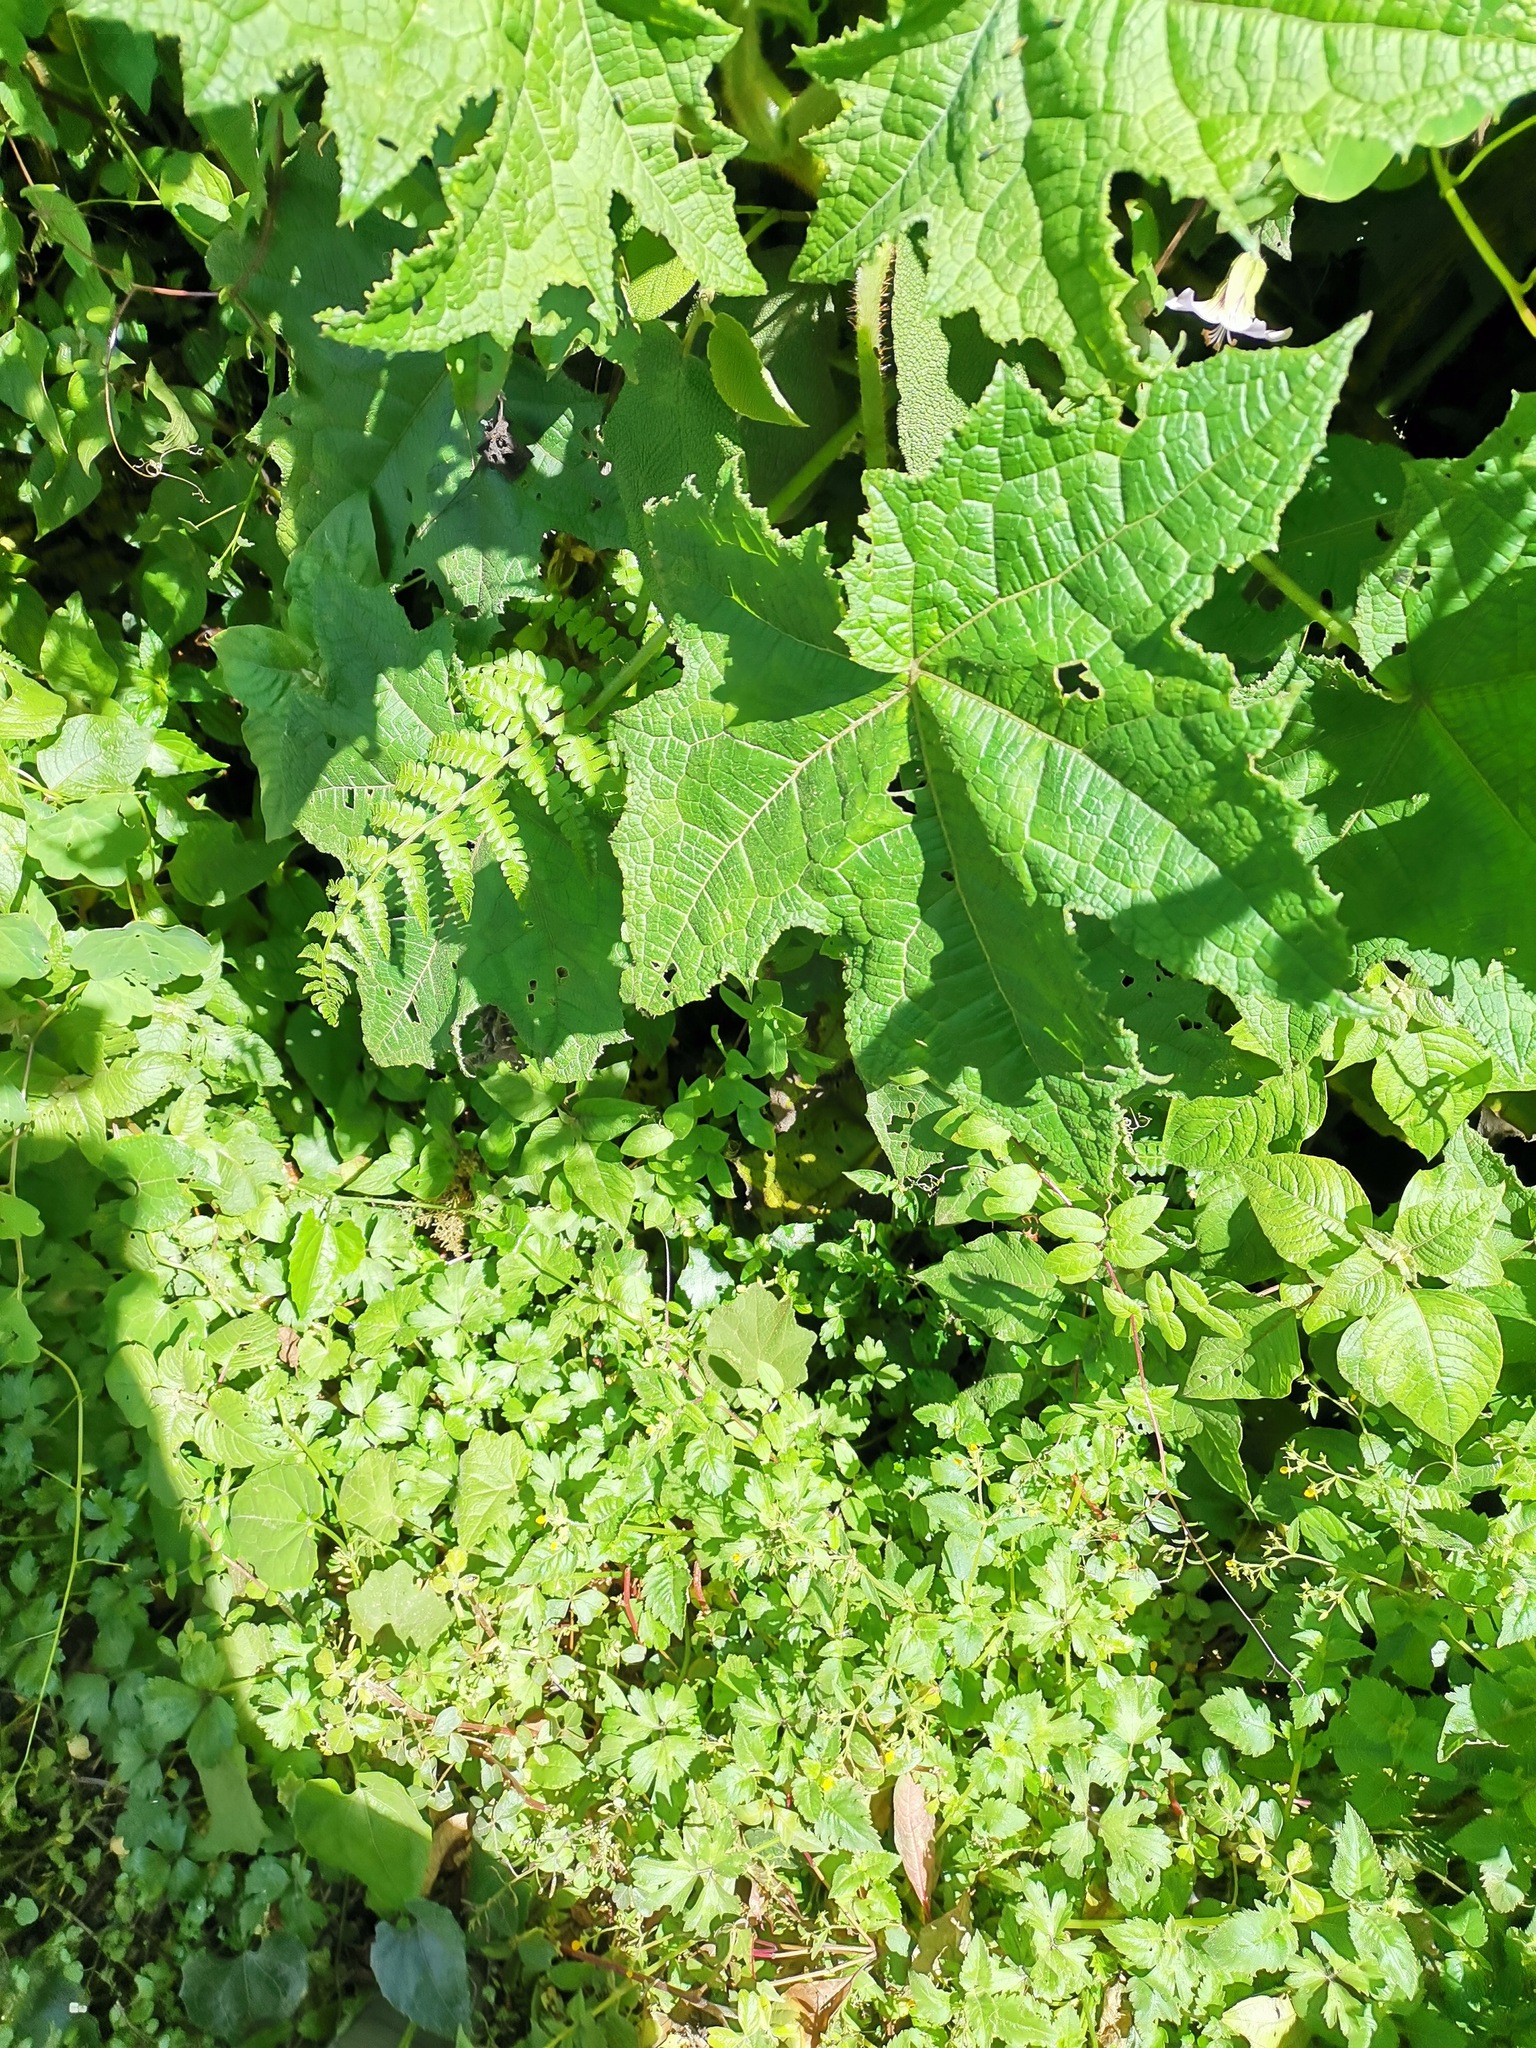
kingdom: Plantae
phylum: Tracheophyta
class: Magnoliopsida
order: Cornales
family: Loasaceae
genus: Nasa
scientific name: Nasa speciosa
